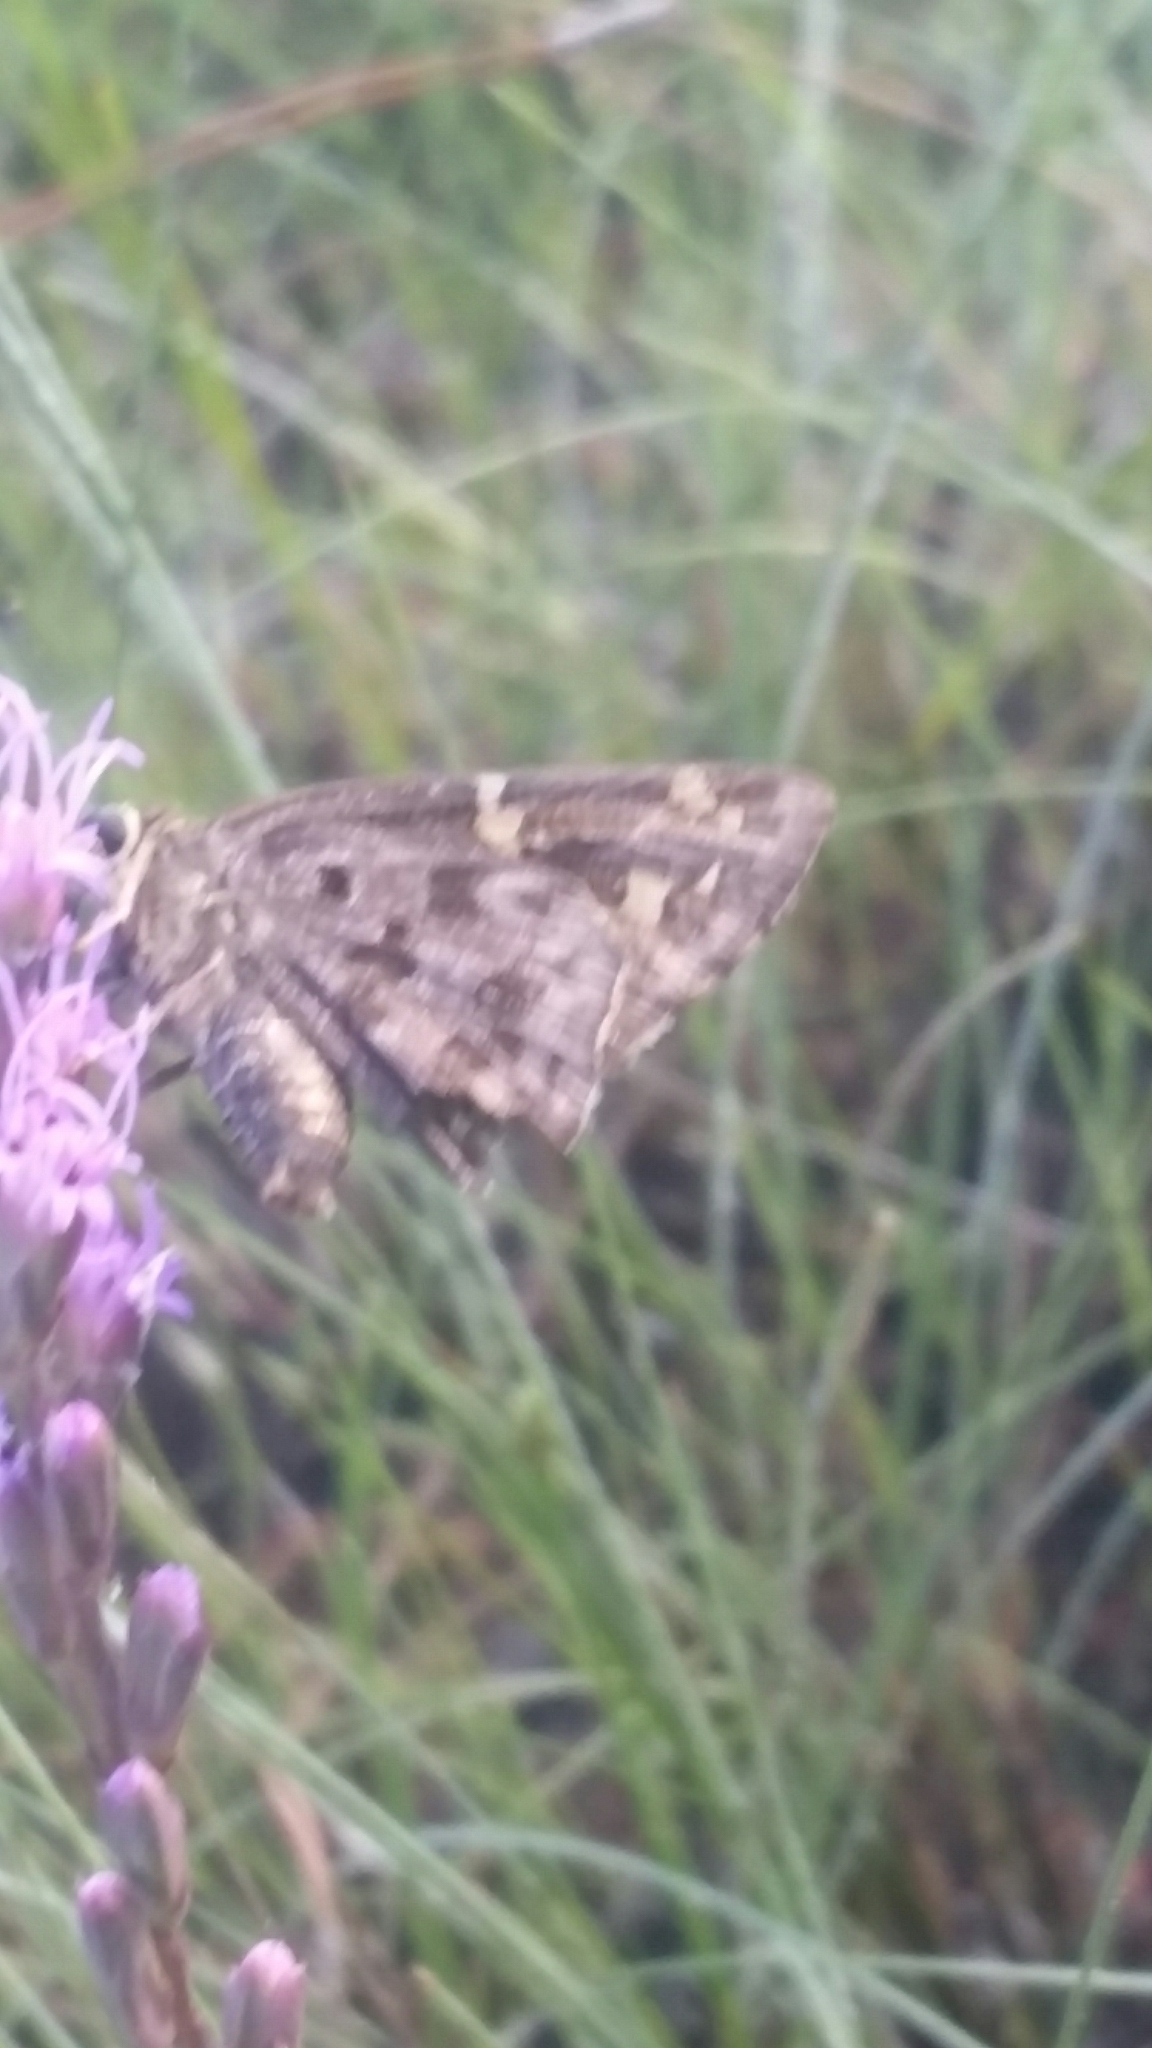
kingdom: Animalia
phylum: Arthropoda
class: Insecta
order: Lepidoptera
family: Hesperiidae
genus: Thorybes
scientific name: Thorybes
